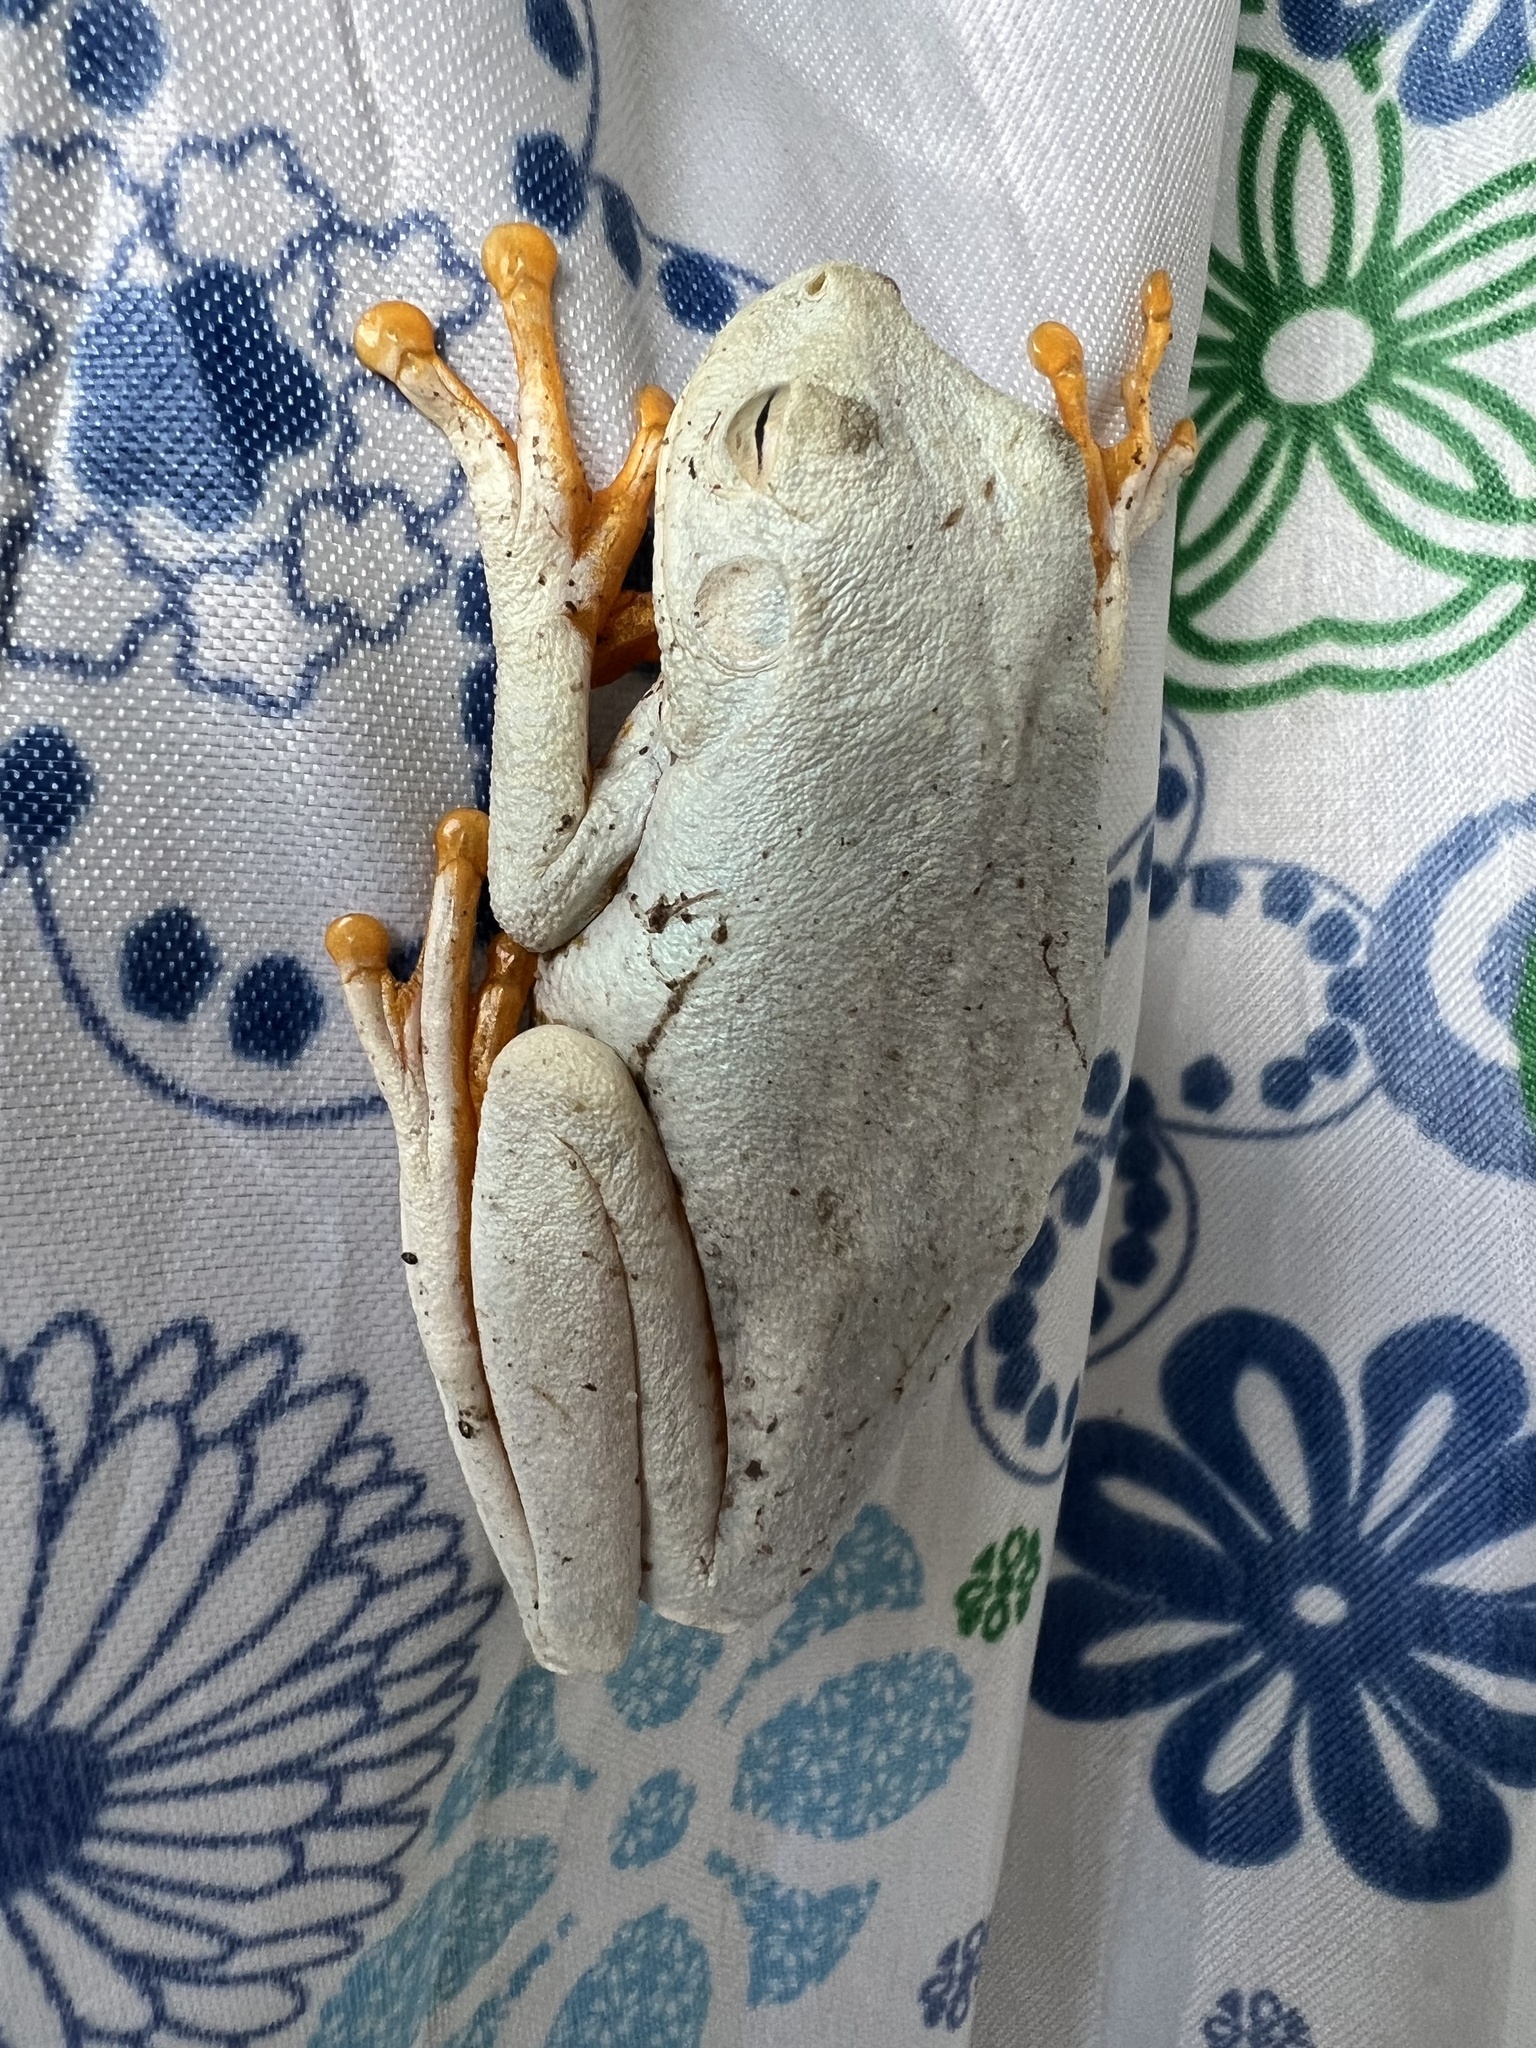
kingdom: Animalia
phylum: Chordata
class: Amphibia
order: Anura
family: Hylidae
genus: Boana
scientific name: Boana platanera
